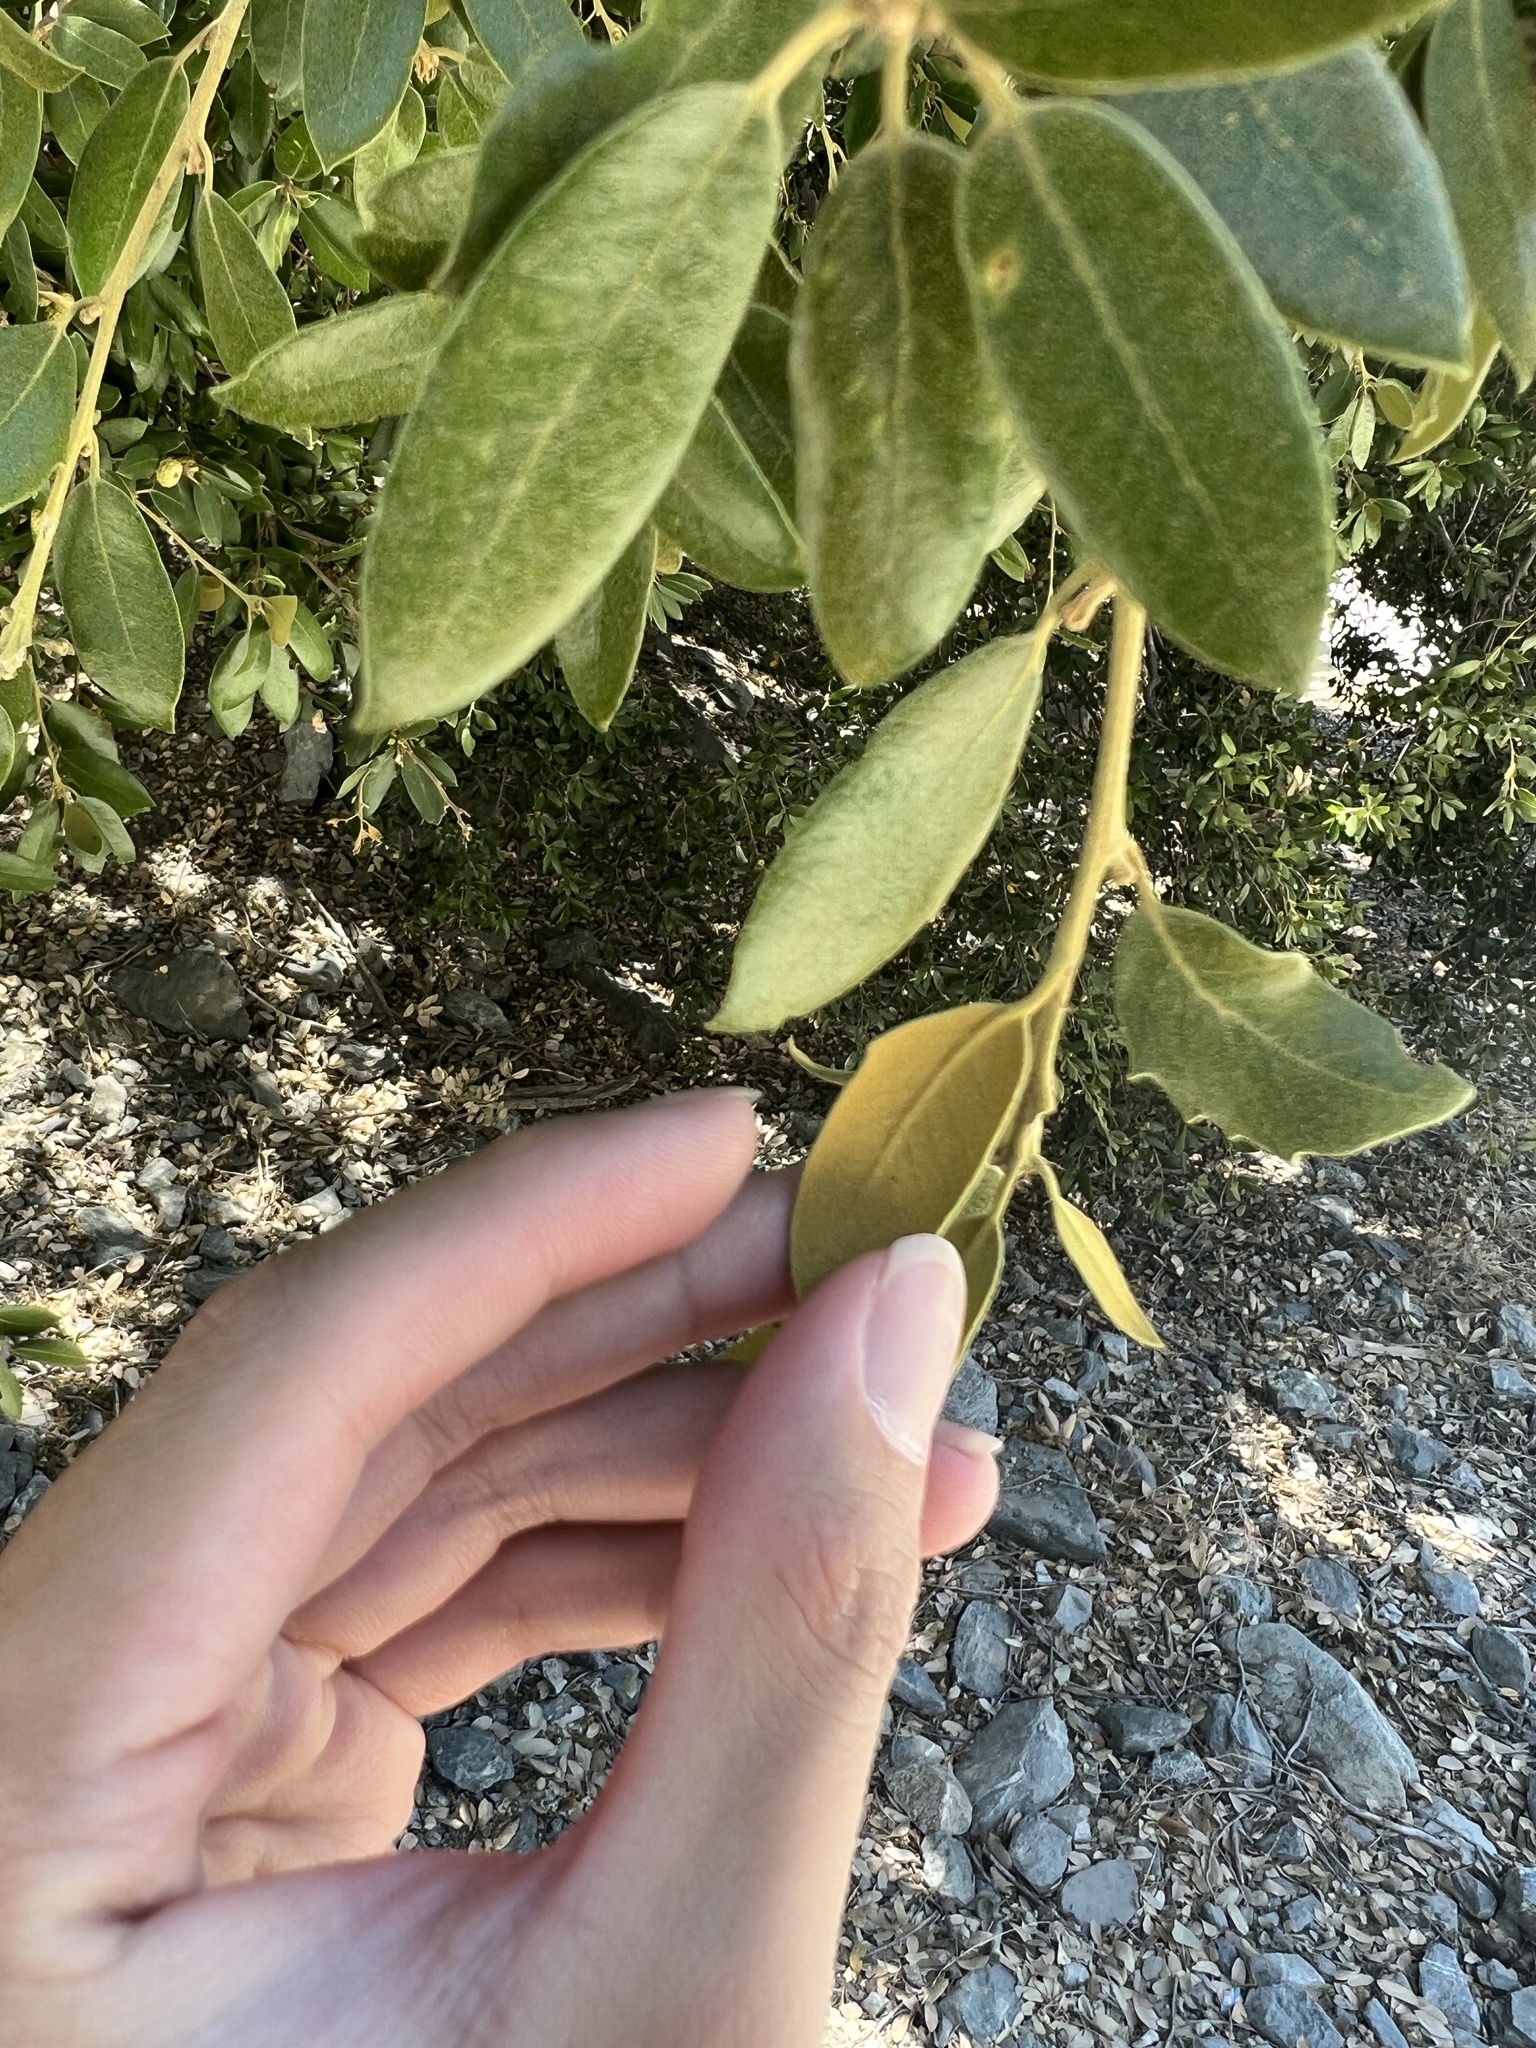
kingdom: Plantae
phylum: Tracheophyta
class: Magnoliopsida
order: Fagales
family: Fagaceae
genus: Quercus
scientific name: Quercus chrysolepis
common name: Canyon live oak
